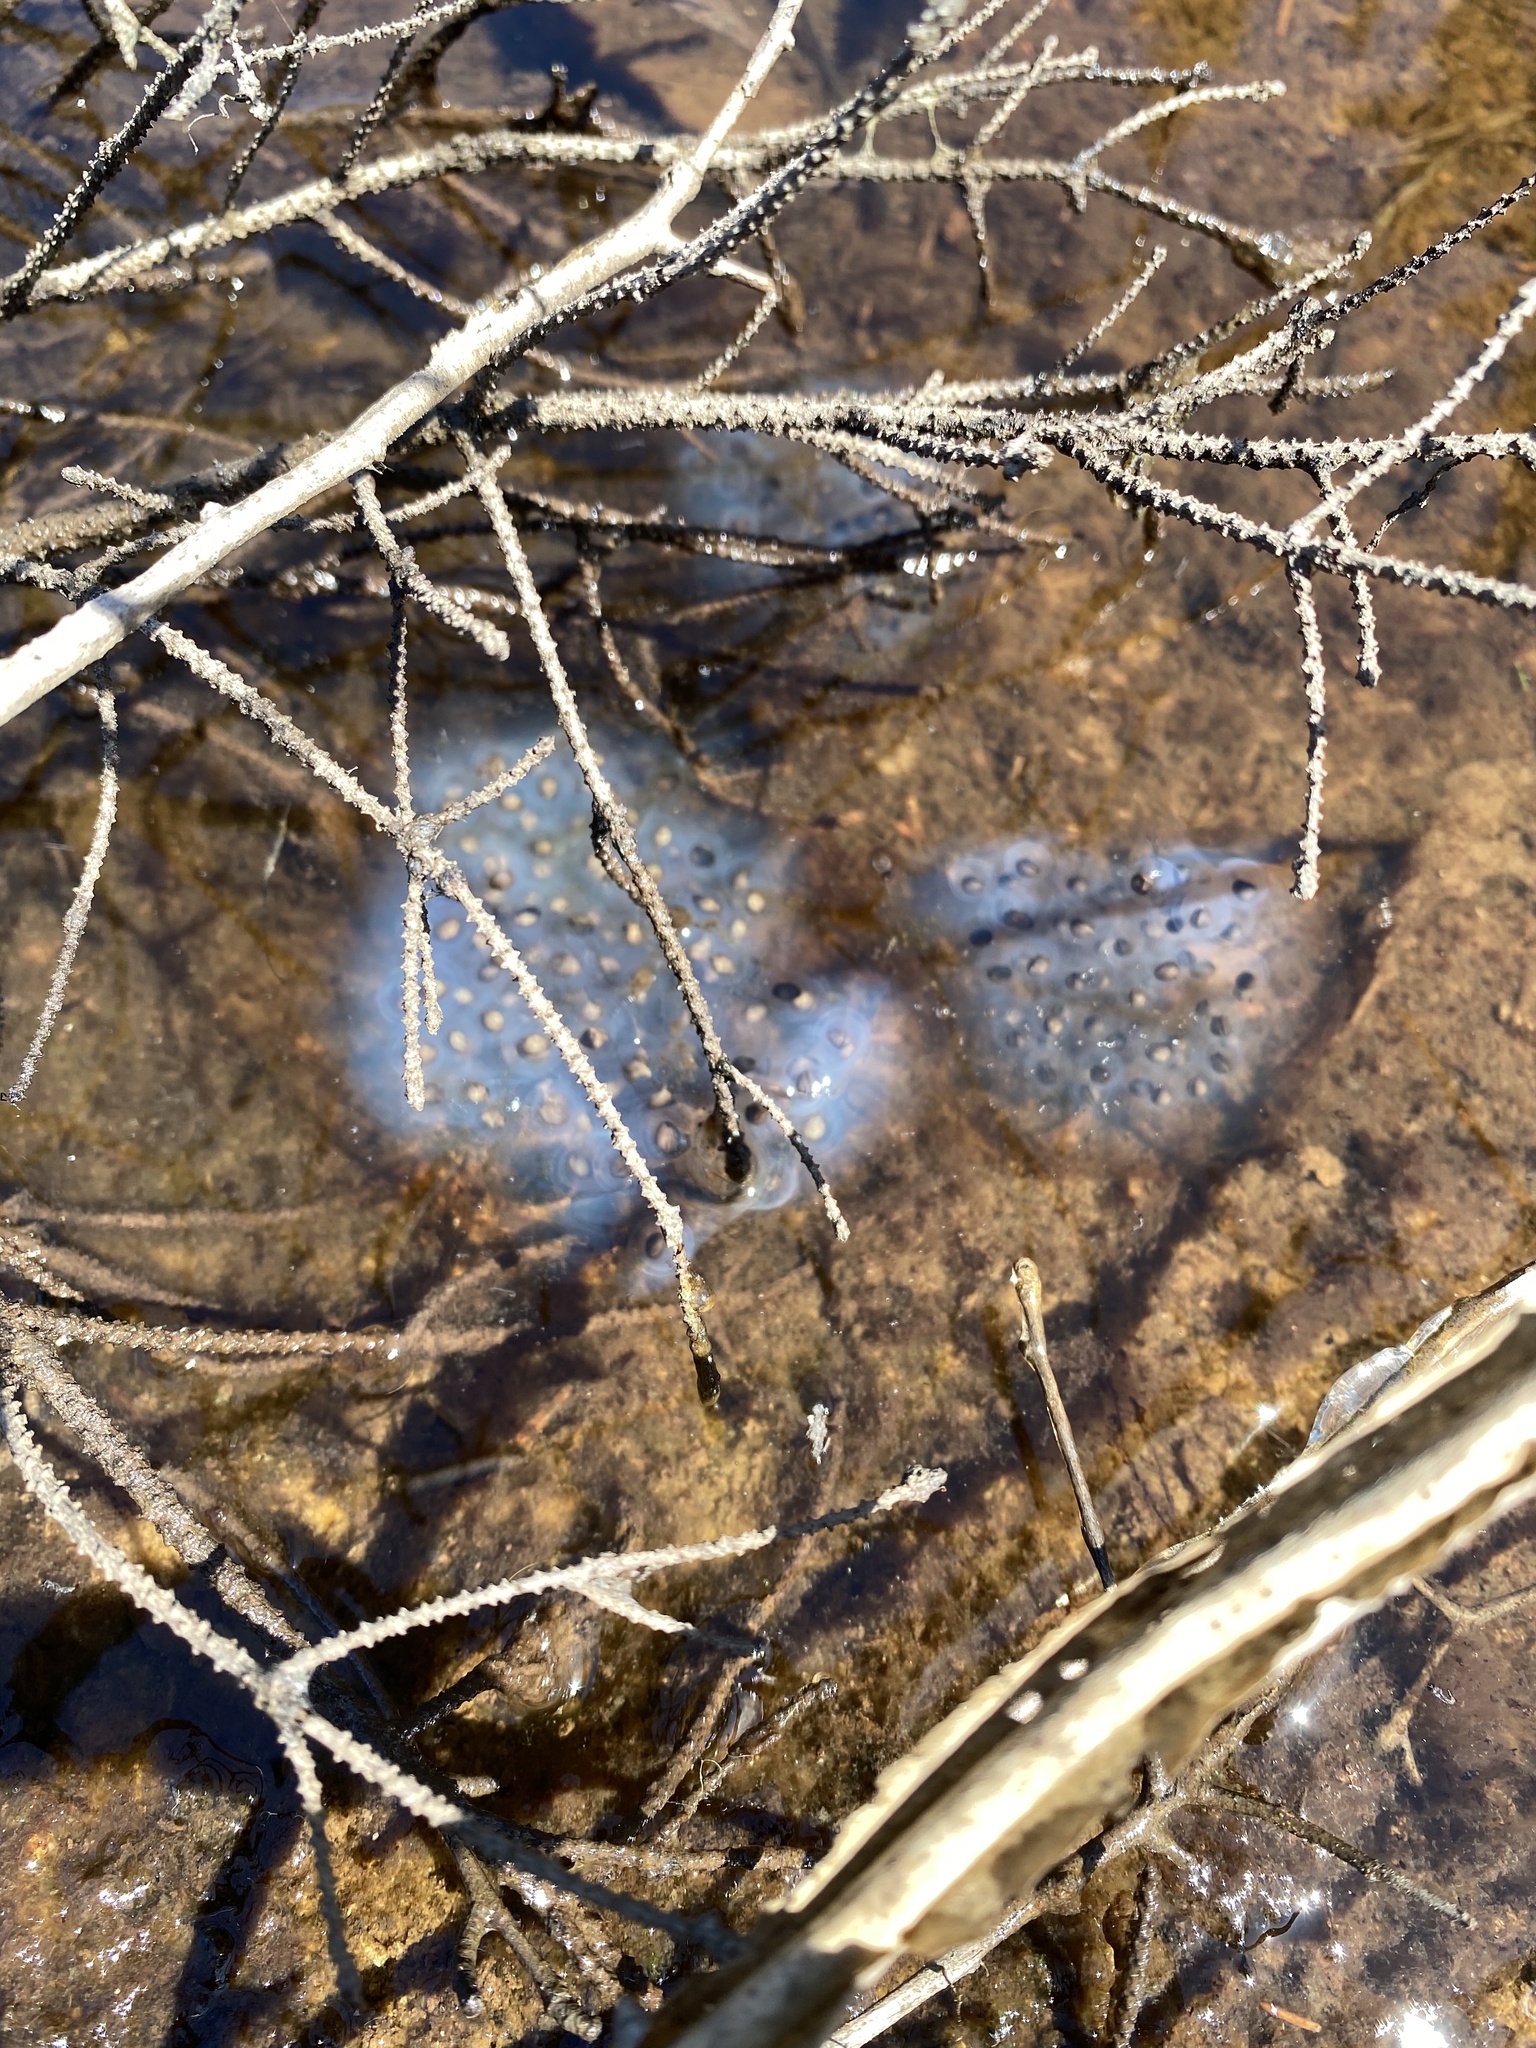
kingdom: Animalia
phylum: Chordata
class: Amphibia
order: Caudata
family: Ambystomatidae
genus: Ambystoma
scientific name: Ambystoma maculatum
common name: Spotted salamander
